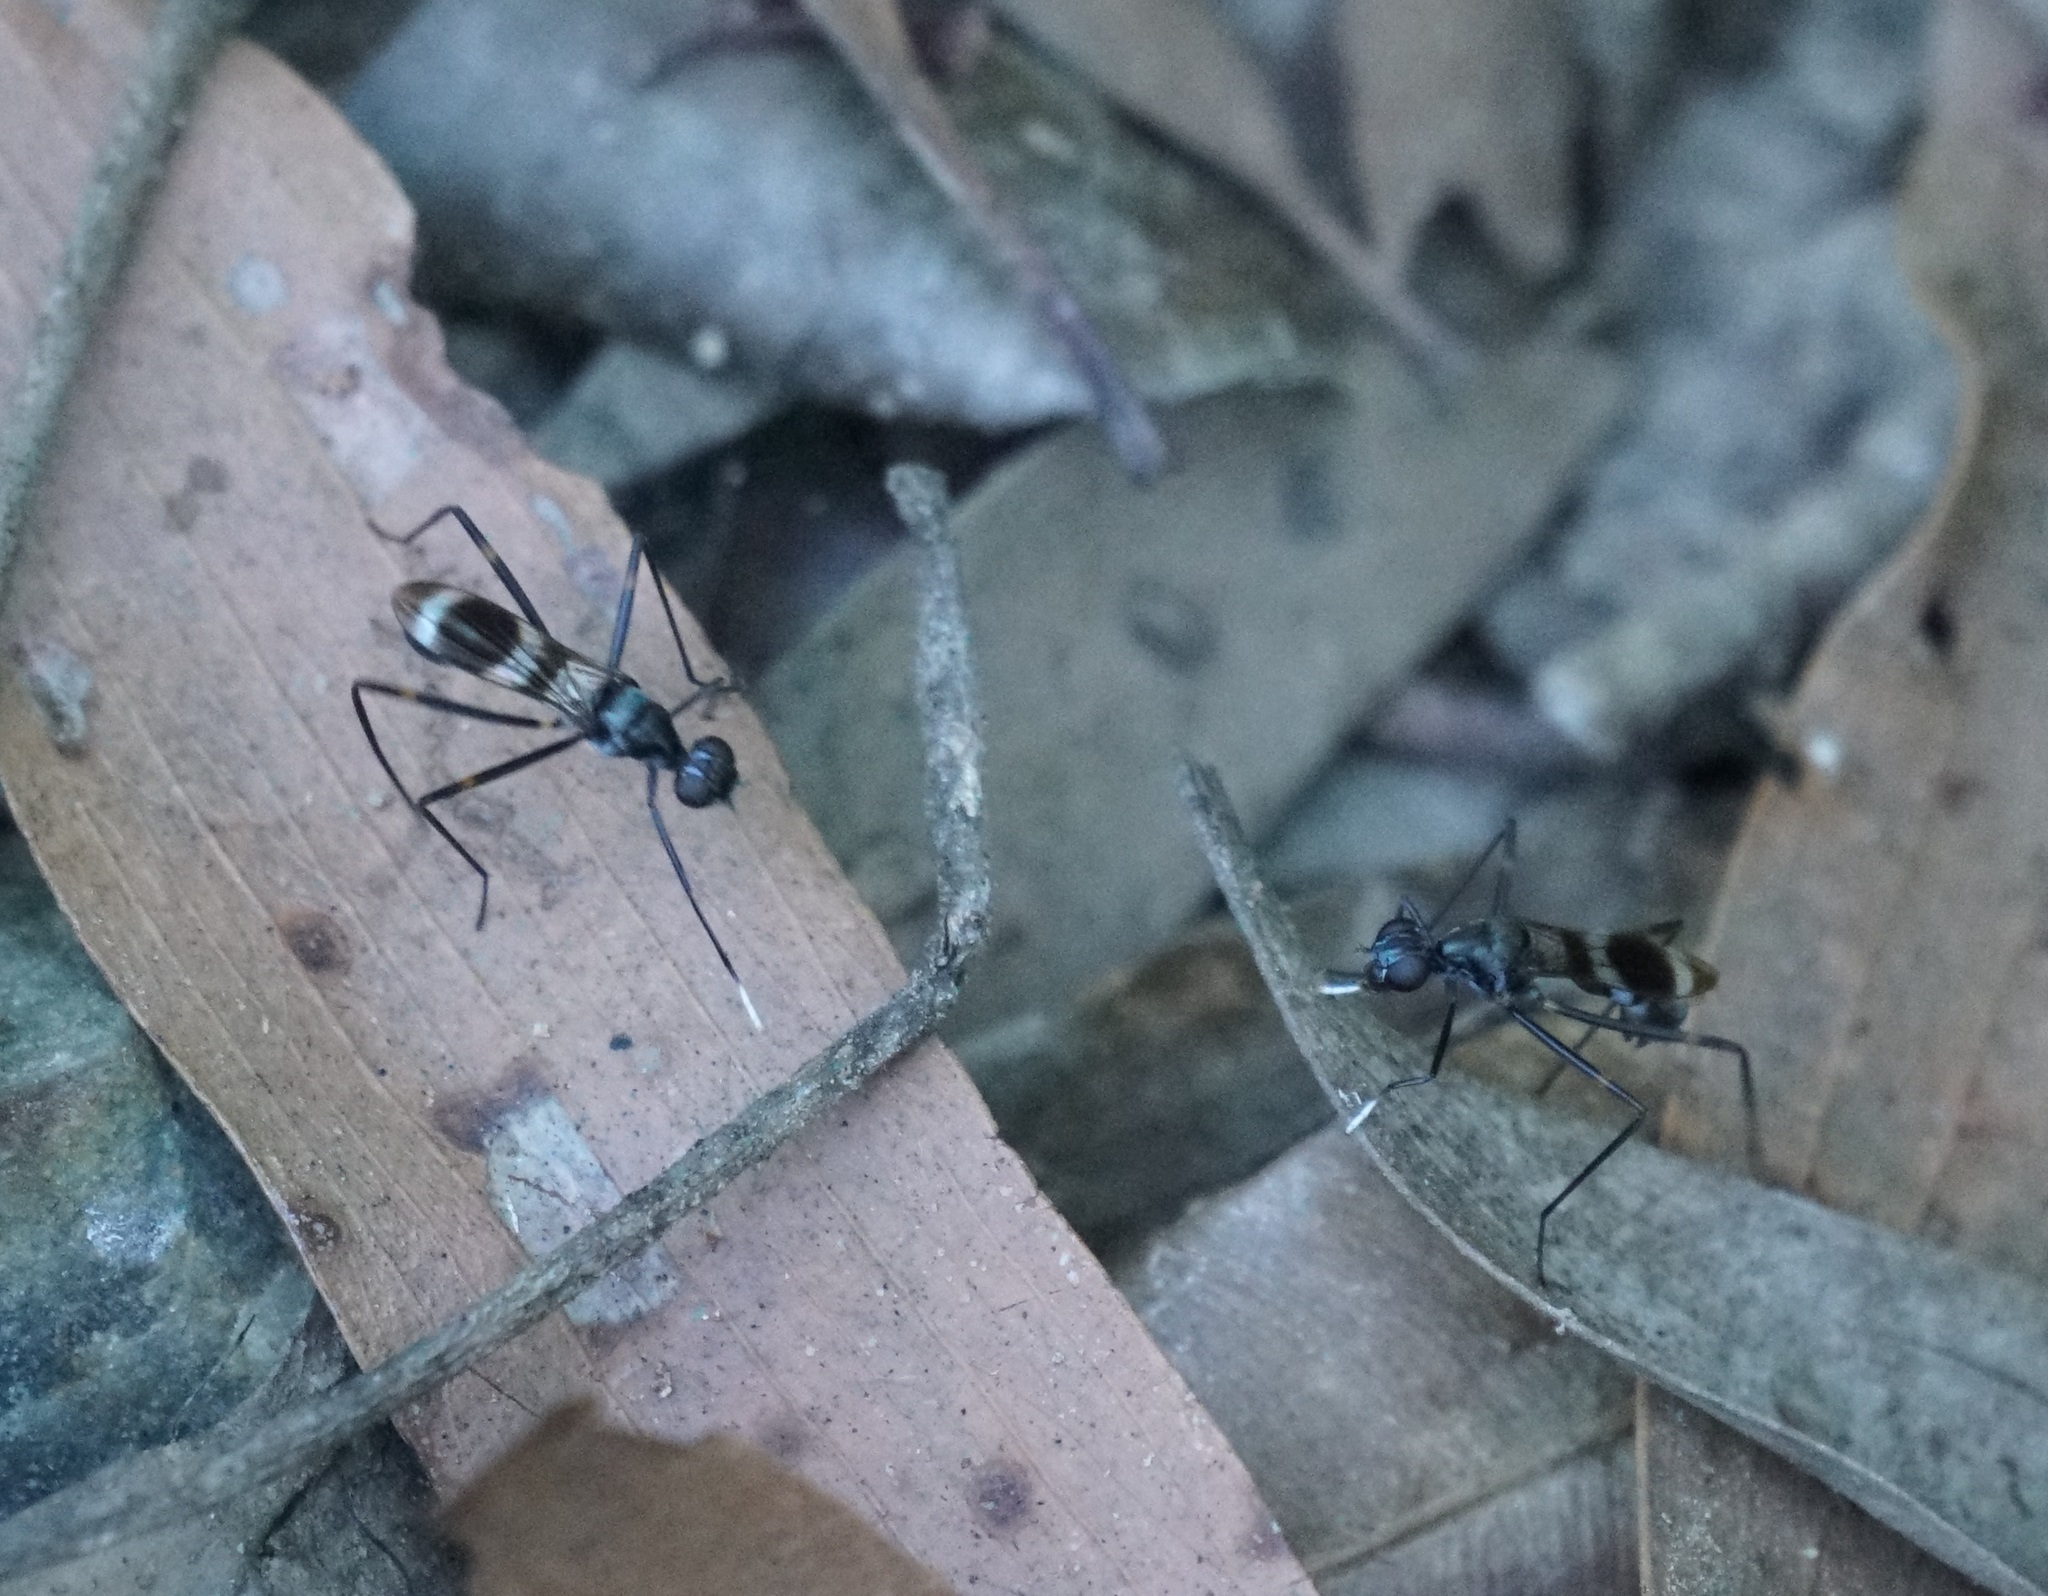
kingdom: Animalia
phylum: Arthropoda
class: Insecta
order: Diptera
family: Micropezidae
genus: Mimegralla
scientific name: Mimegralla australica
